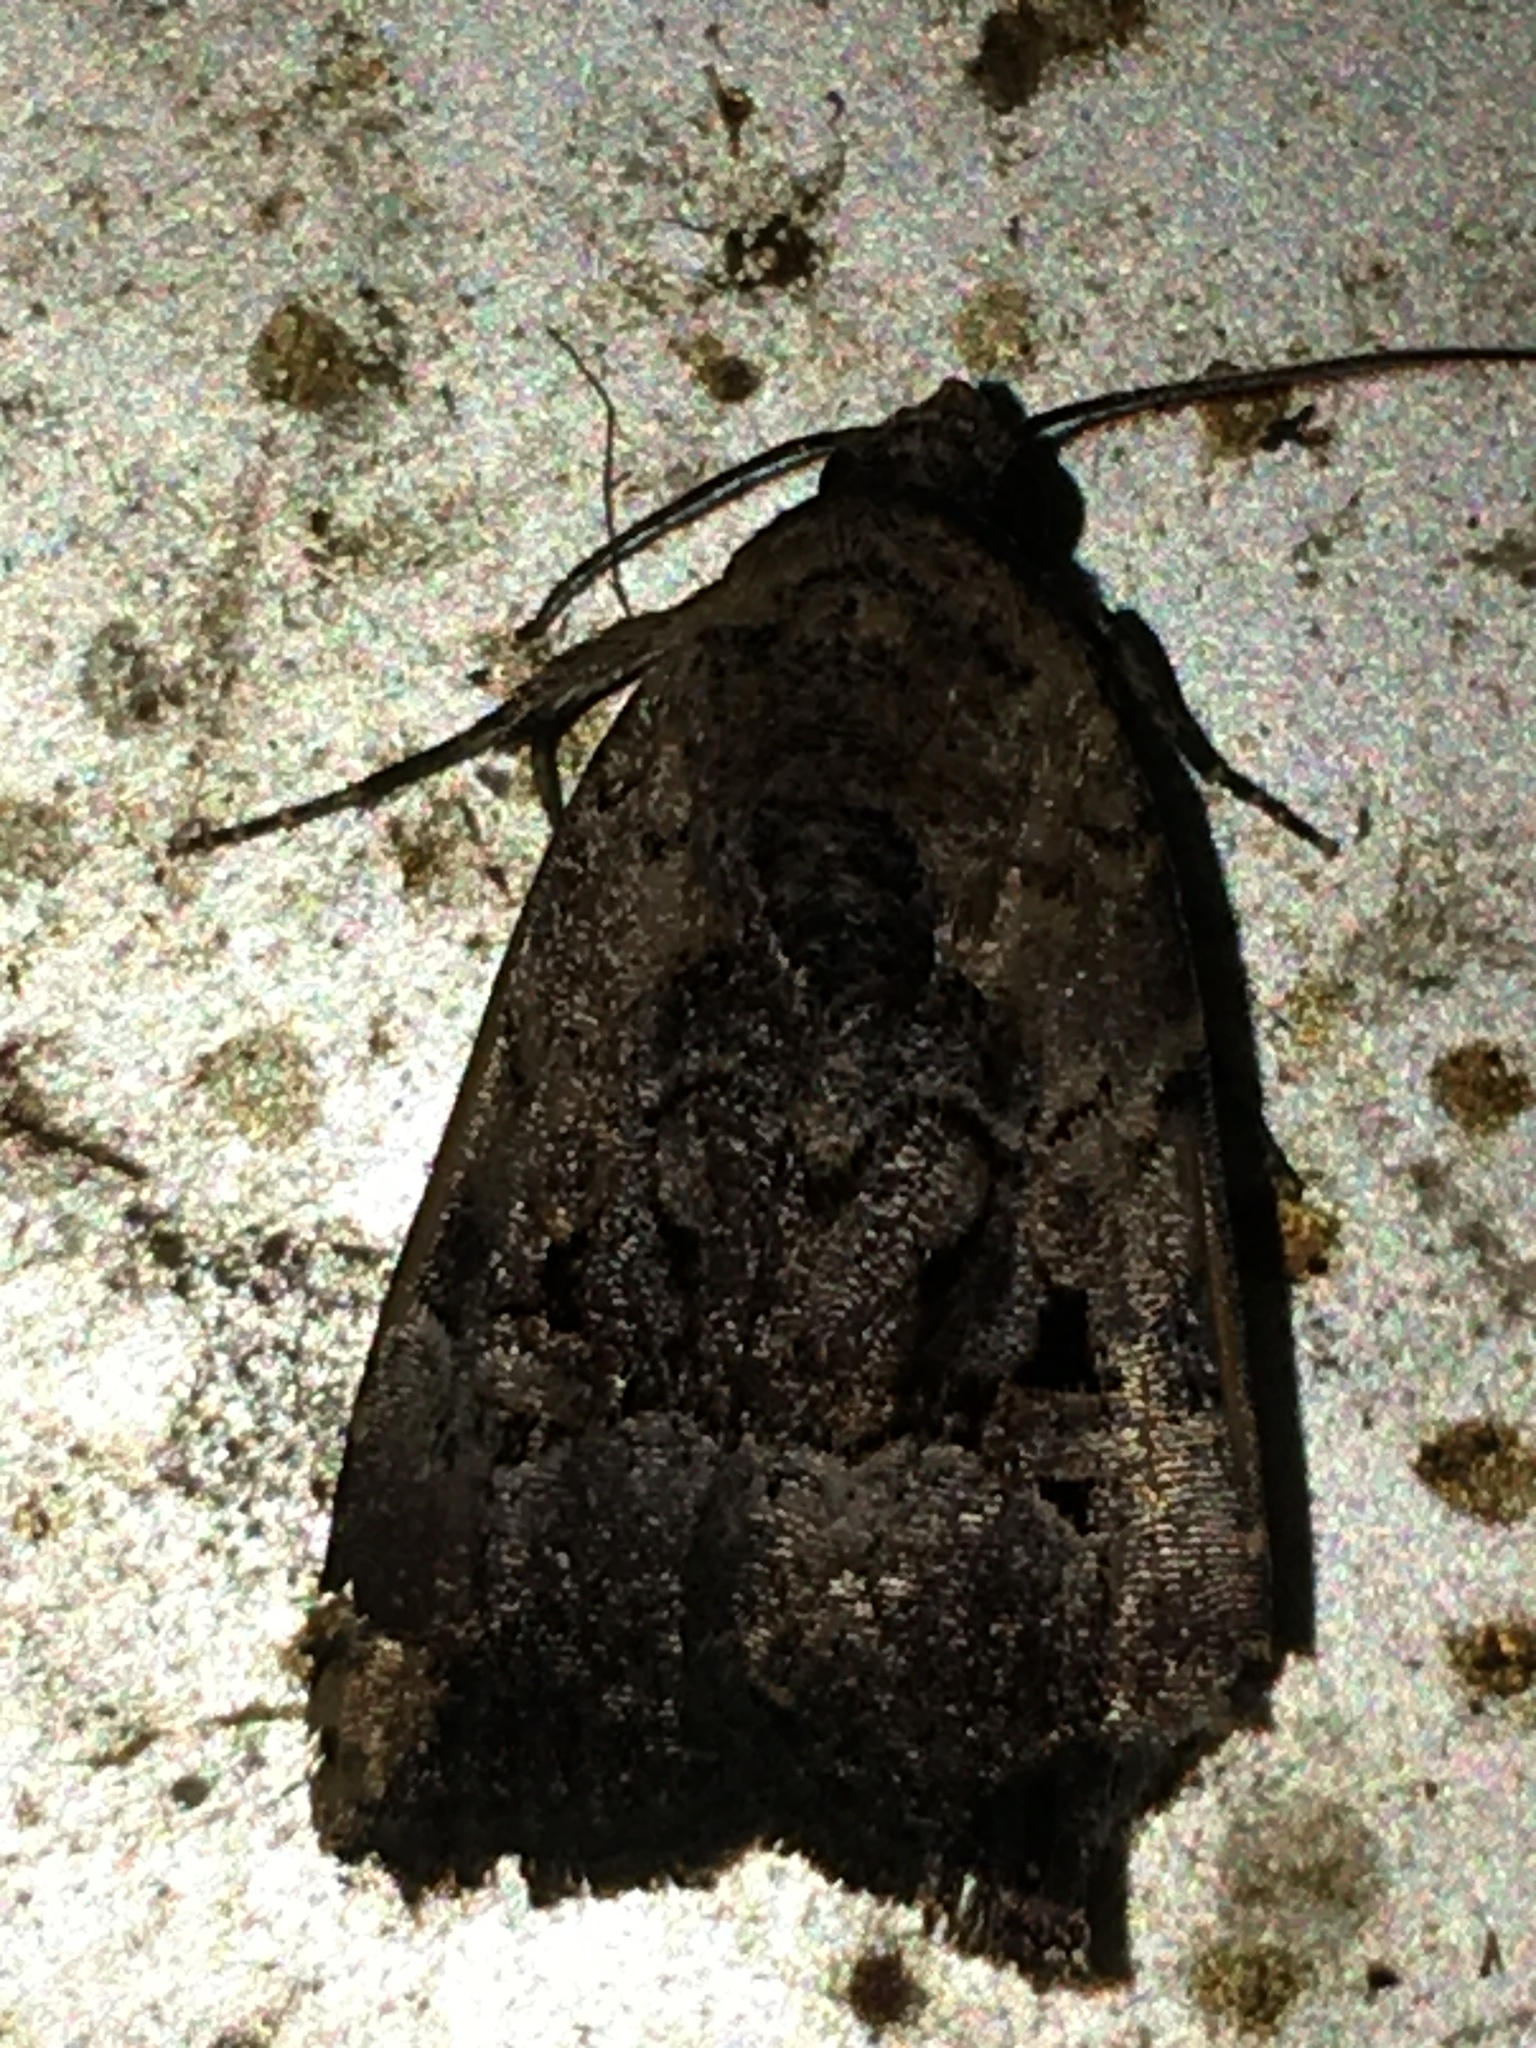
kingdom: Animalia
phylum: Arthropoda
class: Insecta
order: Lepidoptera
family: Noctuidae
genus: Elaphria
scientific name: Elaphria chalcedonia
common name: Chalcedony midget
